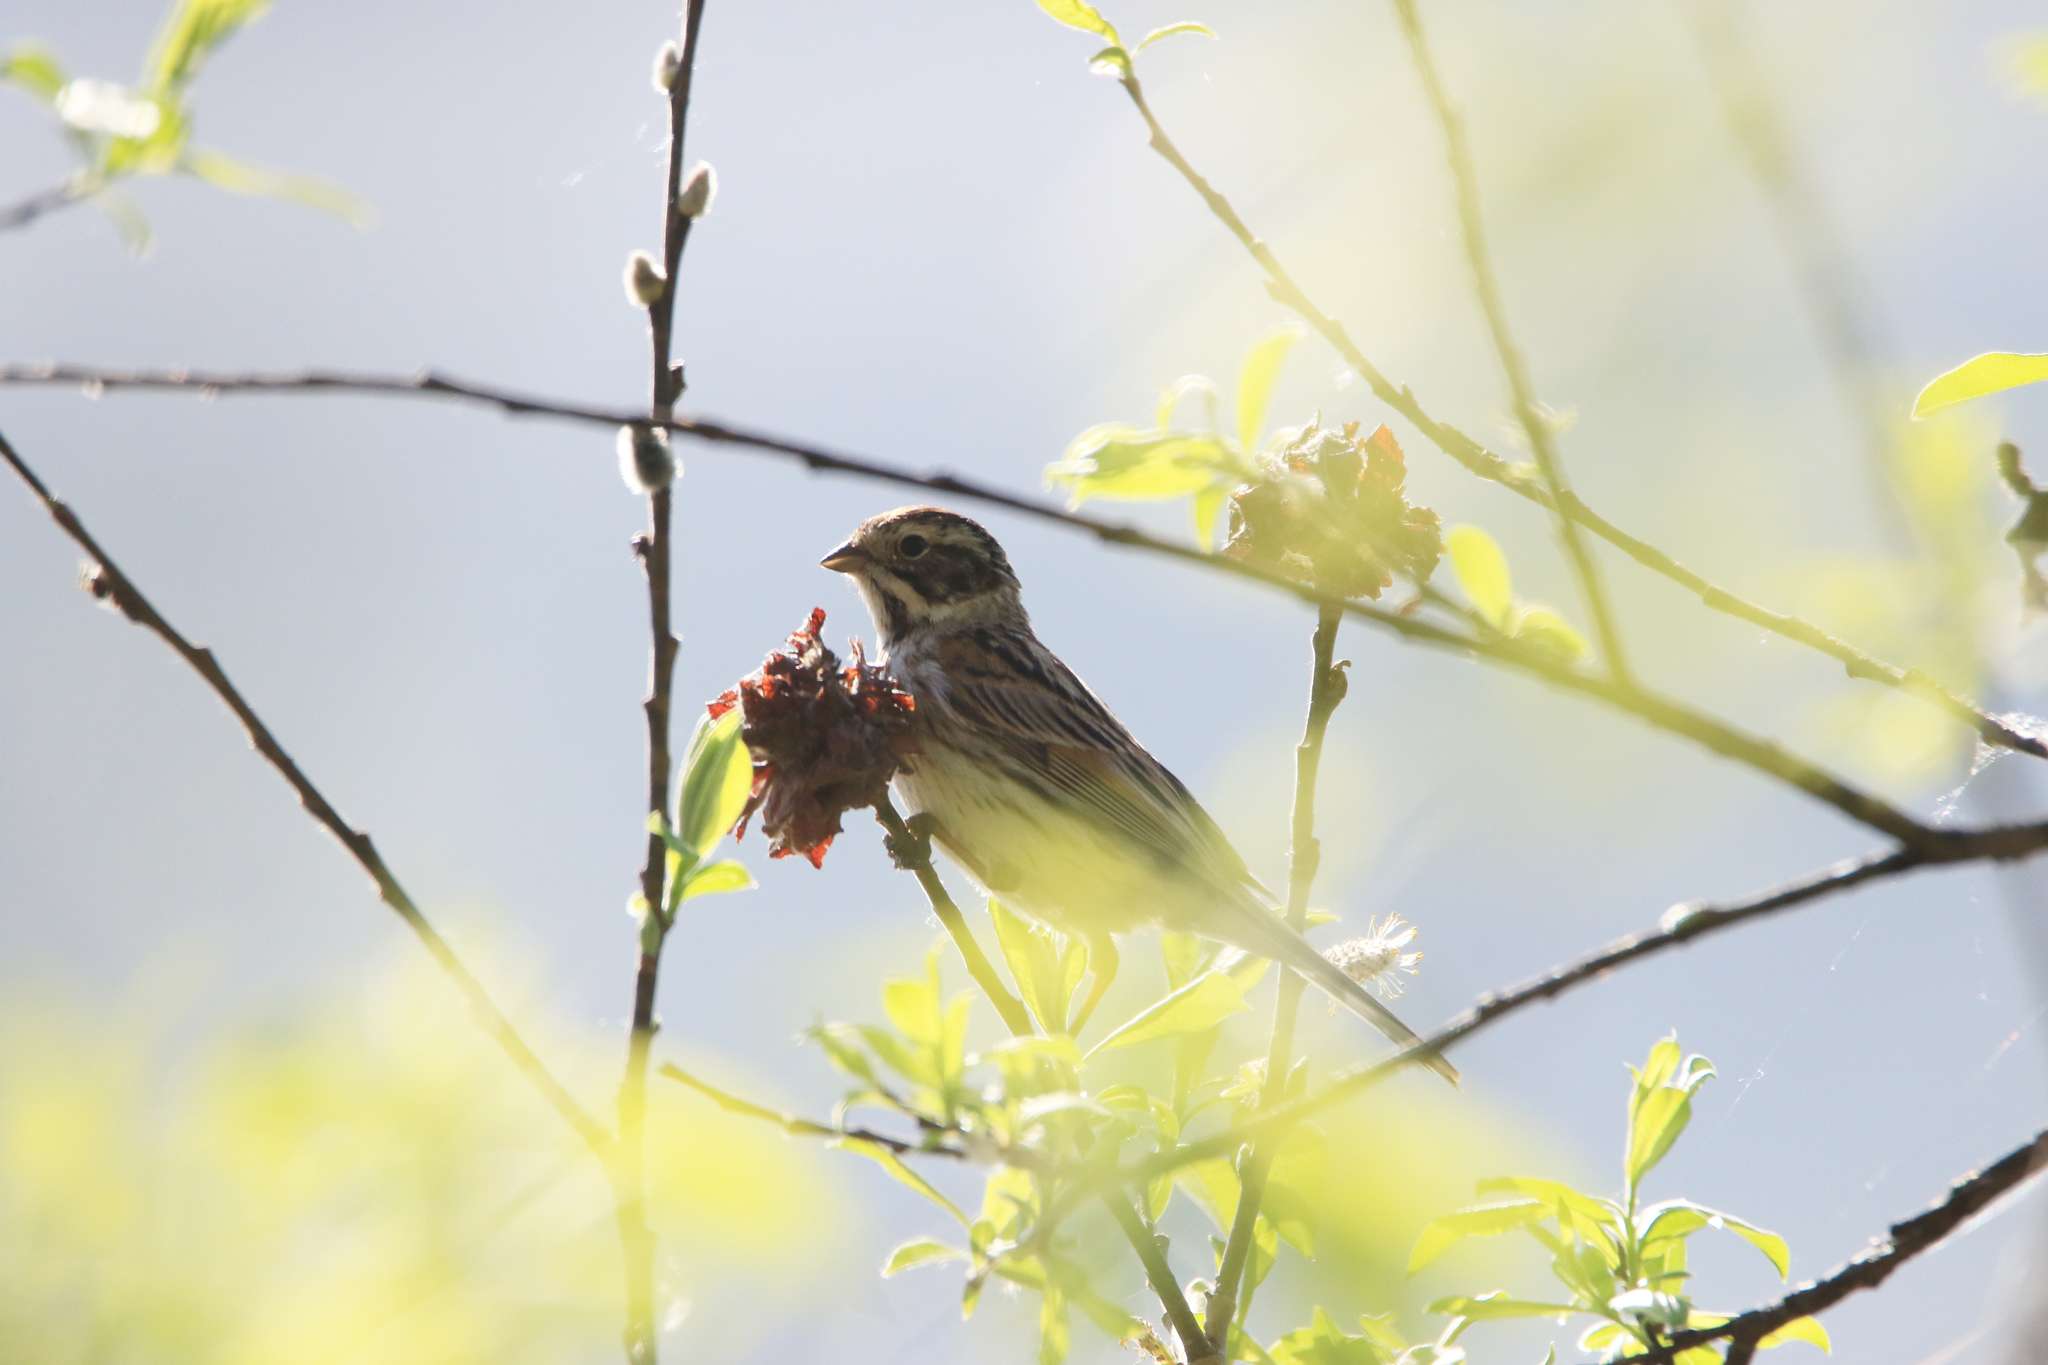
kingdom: Animalia
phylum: Chordata
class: Aves
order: Passeriformes
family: Emberizidae
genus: Emberiza
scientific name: Emberiza schoeniclus
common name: Reed bunting
